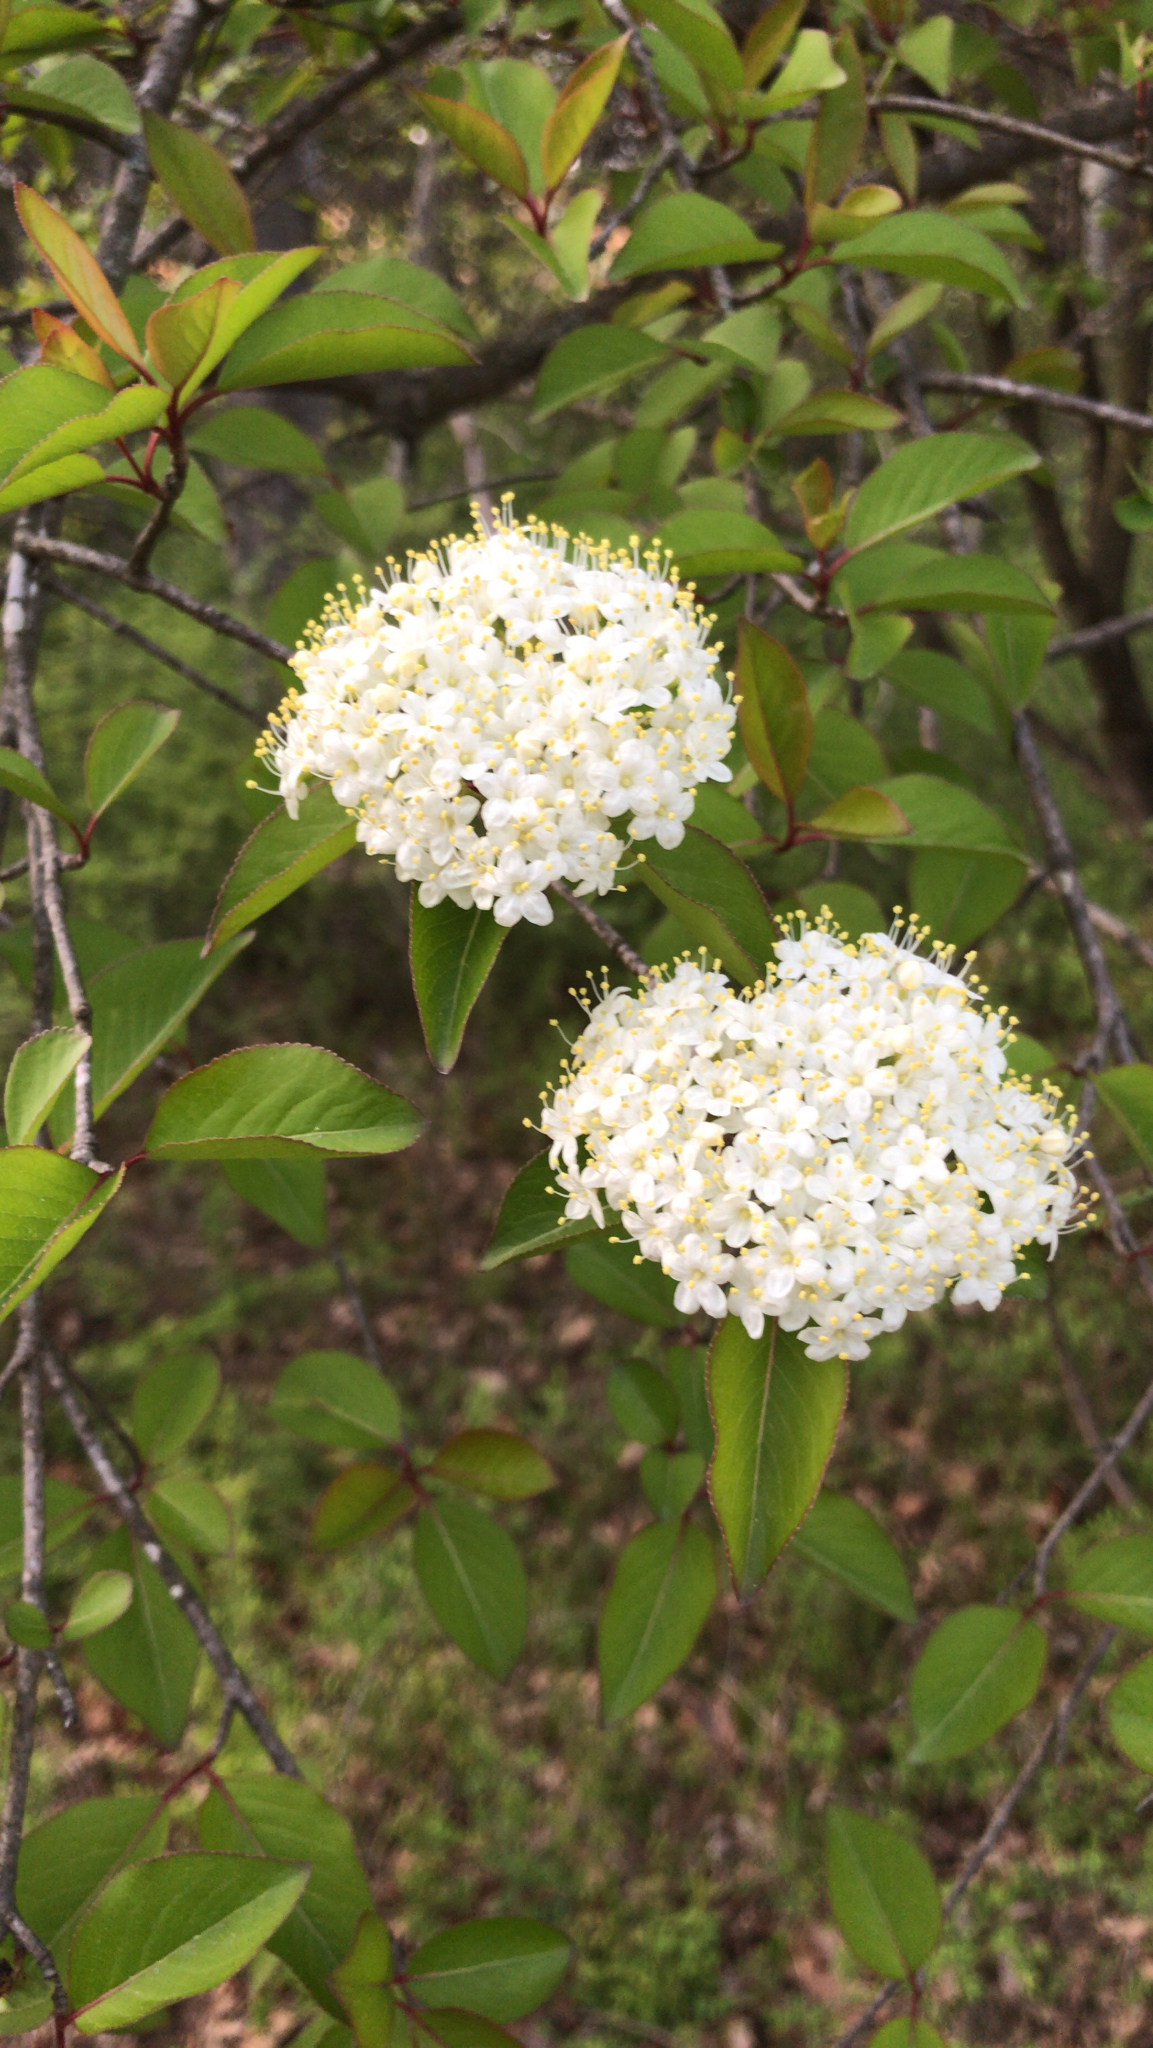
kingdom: Plantae
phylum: Tracheophyta
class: Magnoliopsida
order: Dipsacales
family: Viburnaceae
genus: Viburnum
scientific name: Viburnum prunifolium
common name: Black haw
